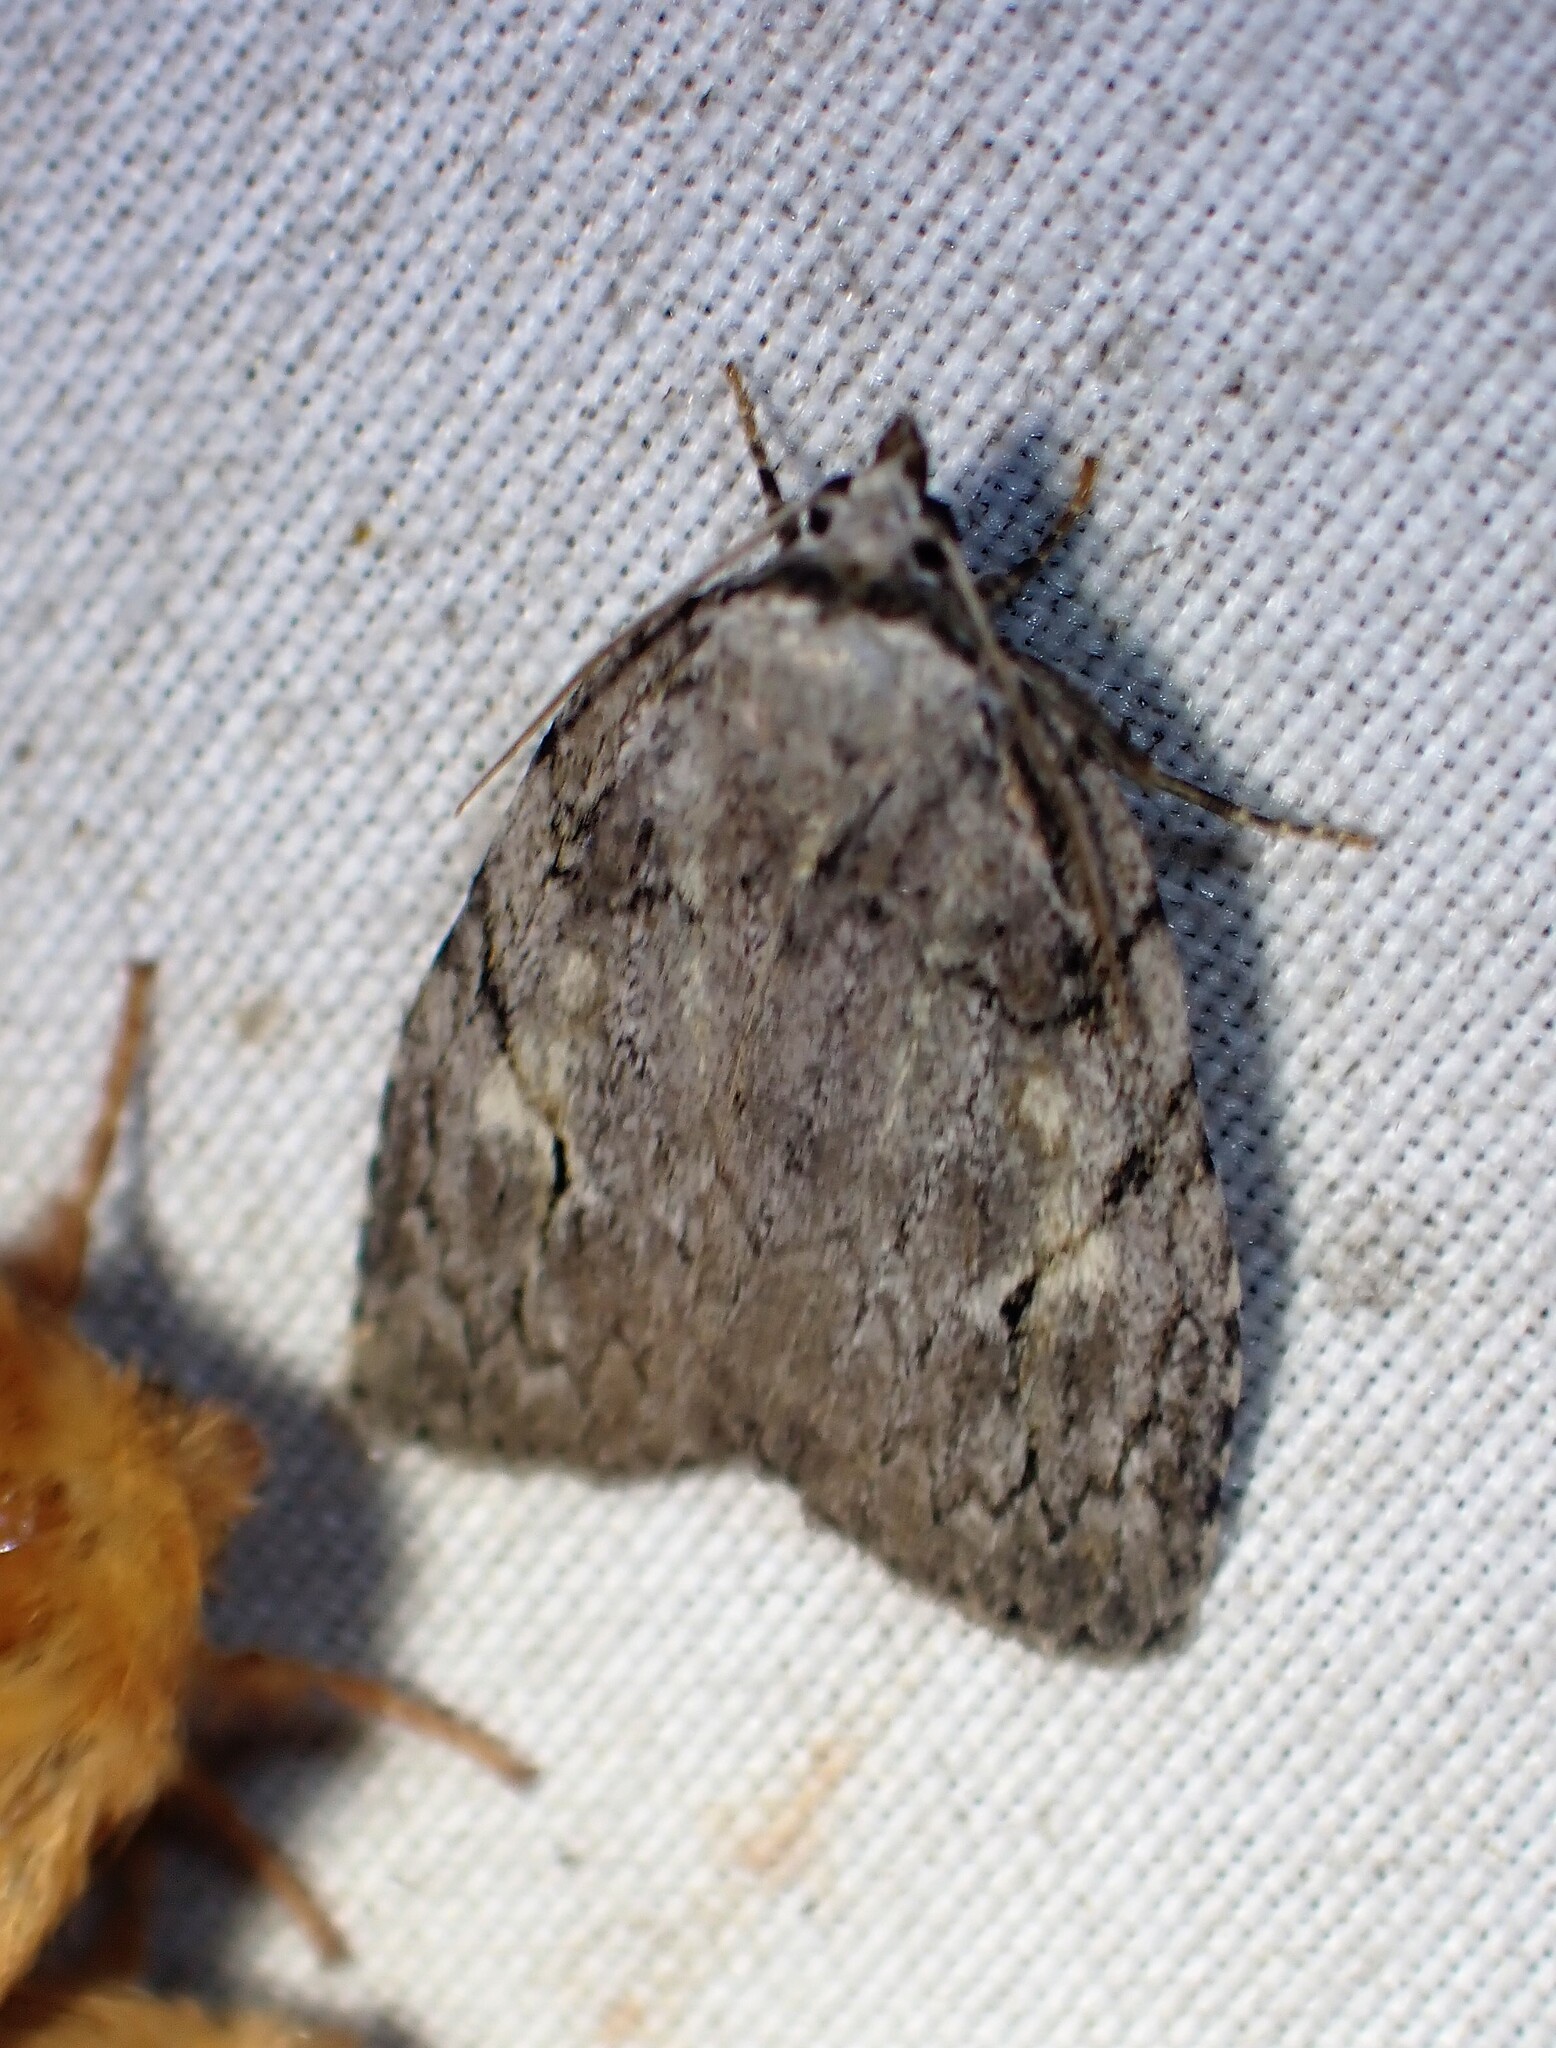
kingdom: Animalia
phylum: Arthropoda
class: Insecta
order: Lepidoptera
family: Noctuidae
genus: Balsa
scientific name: Balsa labecula
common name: White-blotched balsa moth
